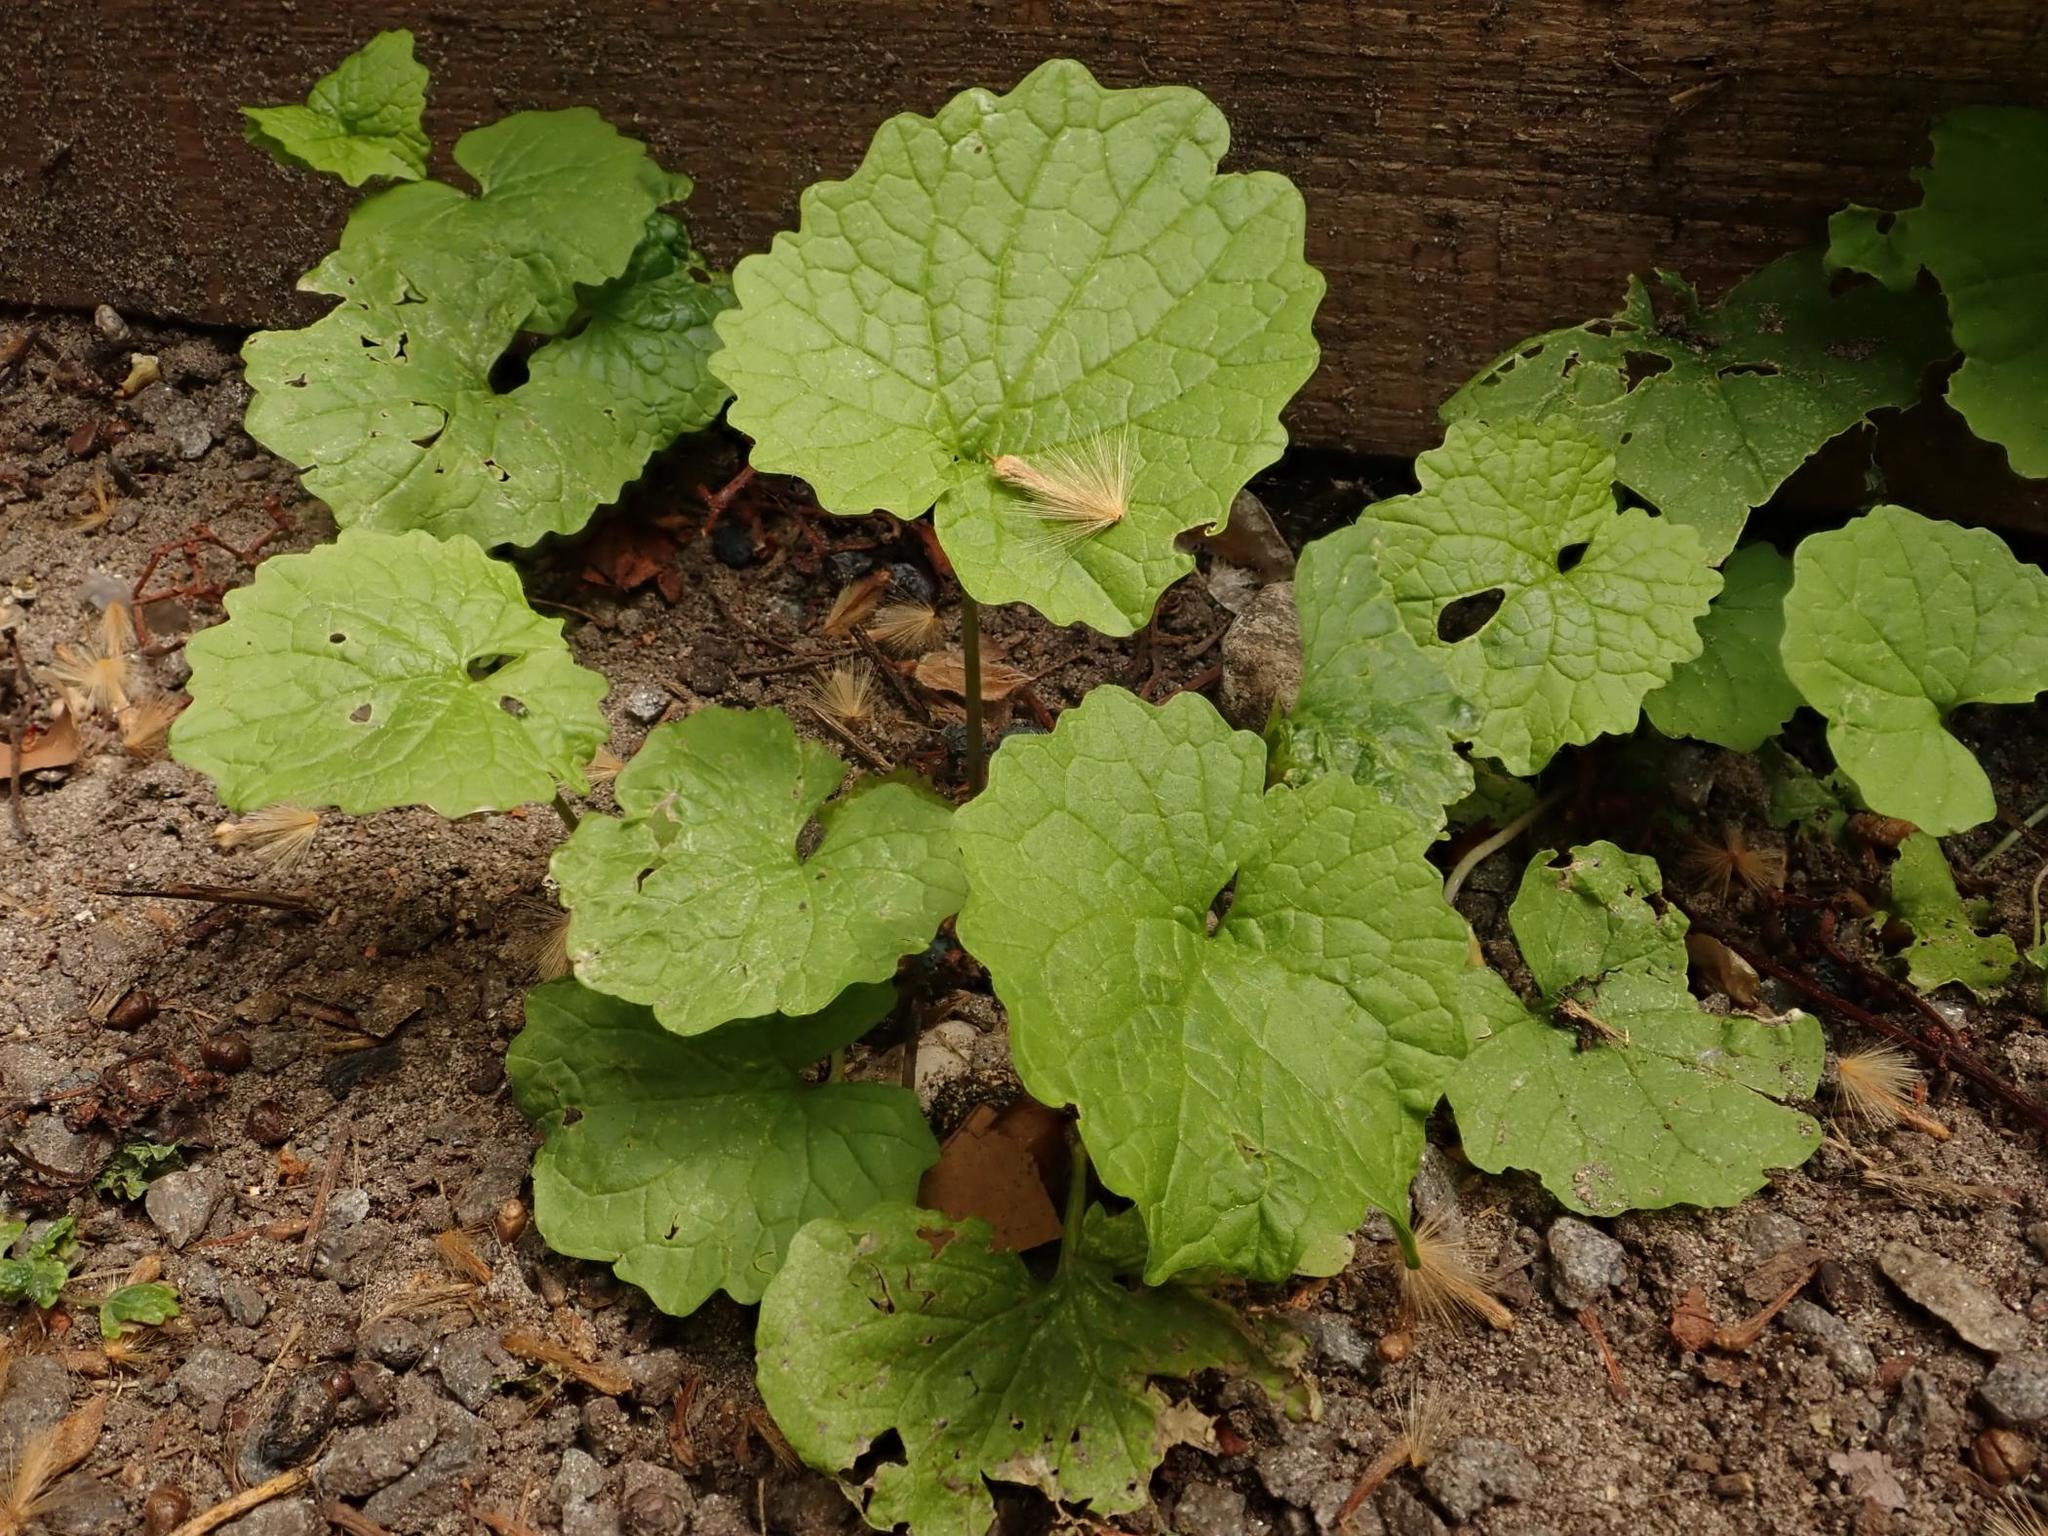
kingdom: Plantae
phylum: Tracheophyta
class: Magnoliopsida
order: Brassicales
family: Brassicaceae
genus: Alliaria
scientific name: Alliaria petiolata
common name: Garlic mustard
